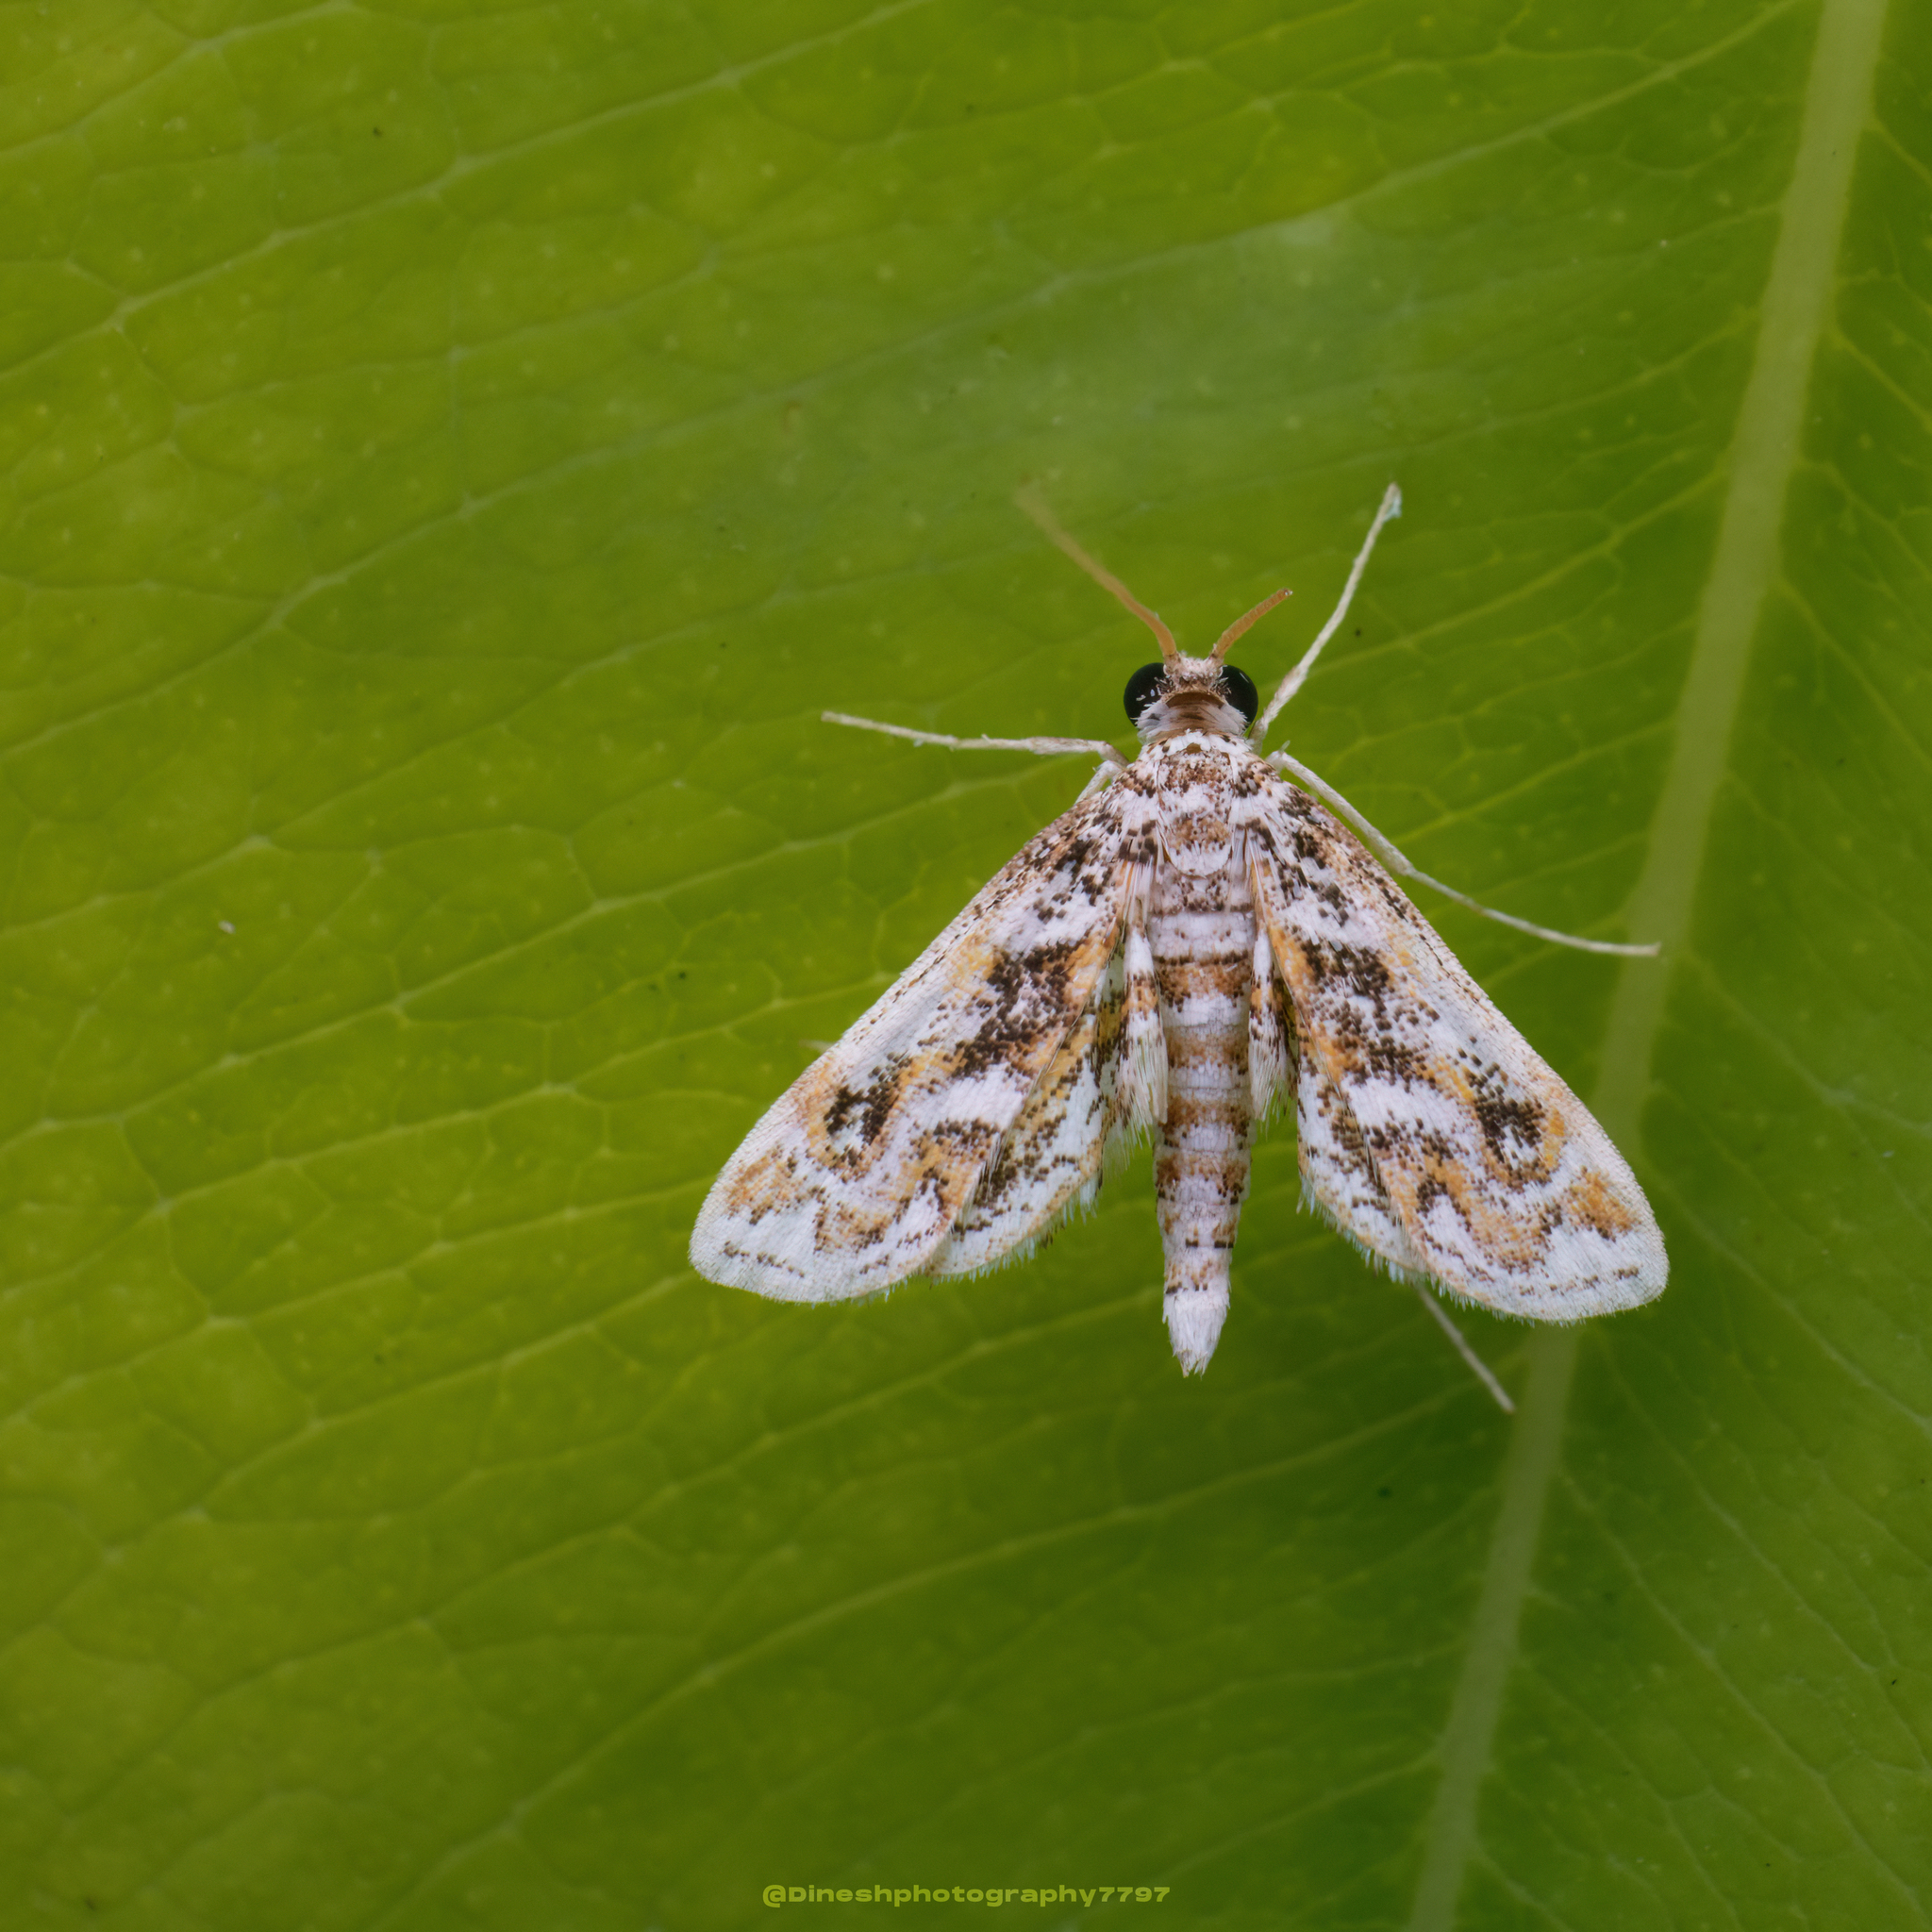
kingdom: Animalia
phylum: Arthropoda
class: Insecta
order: Lepidoptera
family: Crambidae
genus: Parapoynx
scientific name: Parapoynx diminutalis
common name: Hydrilla leafcutter
